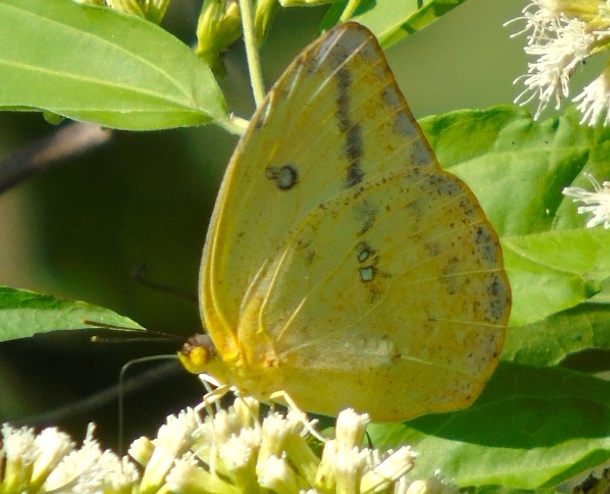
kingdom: Animalia
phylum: Arthropoda
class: Insecta
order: Lepidoptera
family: Pieridae
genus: Phoebis
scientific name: Phoebis agarithe
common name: Large orange sulphur
